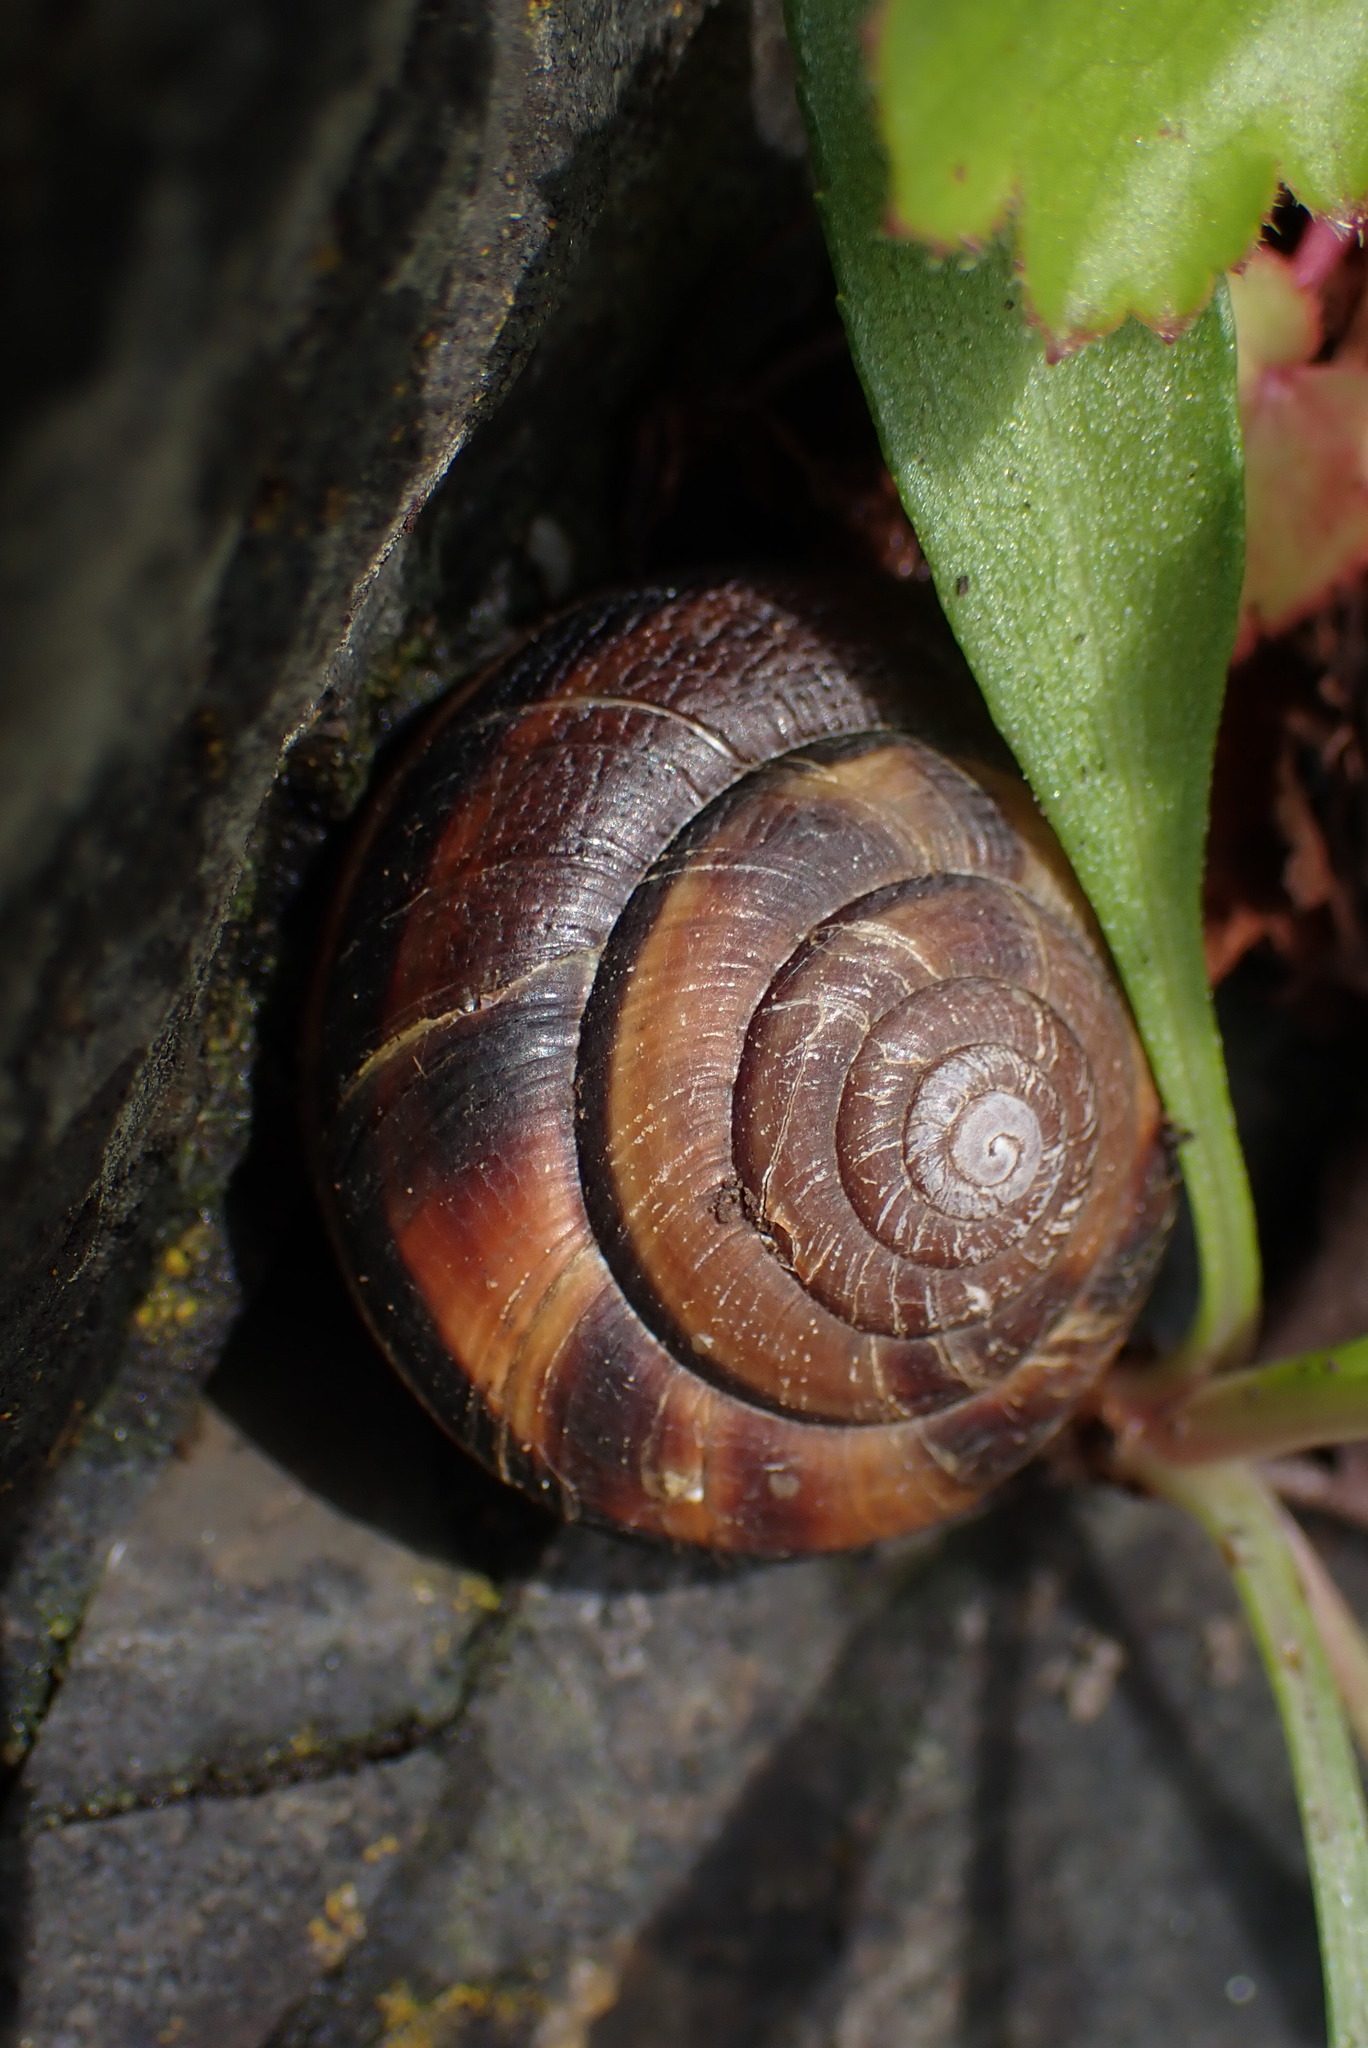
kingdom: Animalia
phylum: Mollusca
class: Gastropoda
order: Stylommatophora
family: Xanthonychidae
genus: Monadenia
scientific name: Monadenia fidelis
